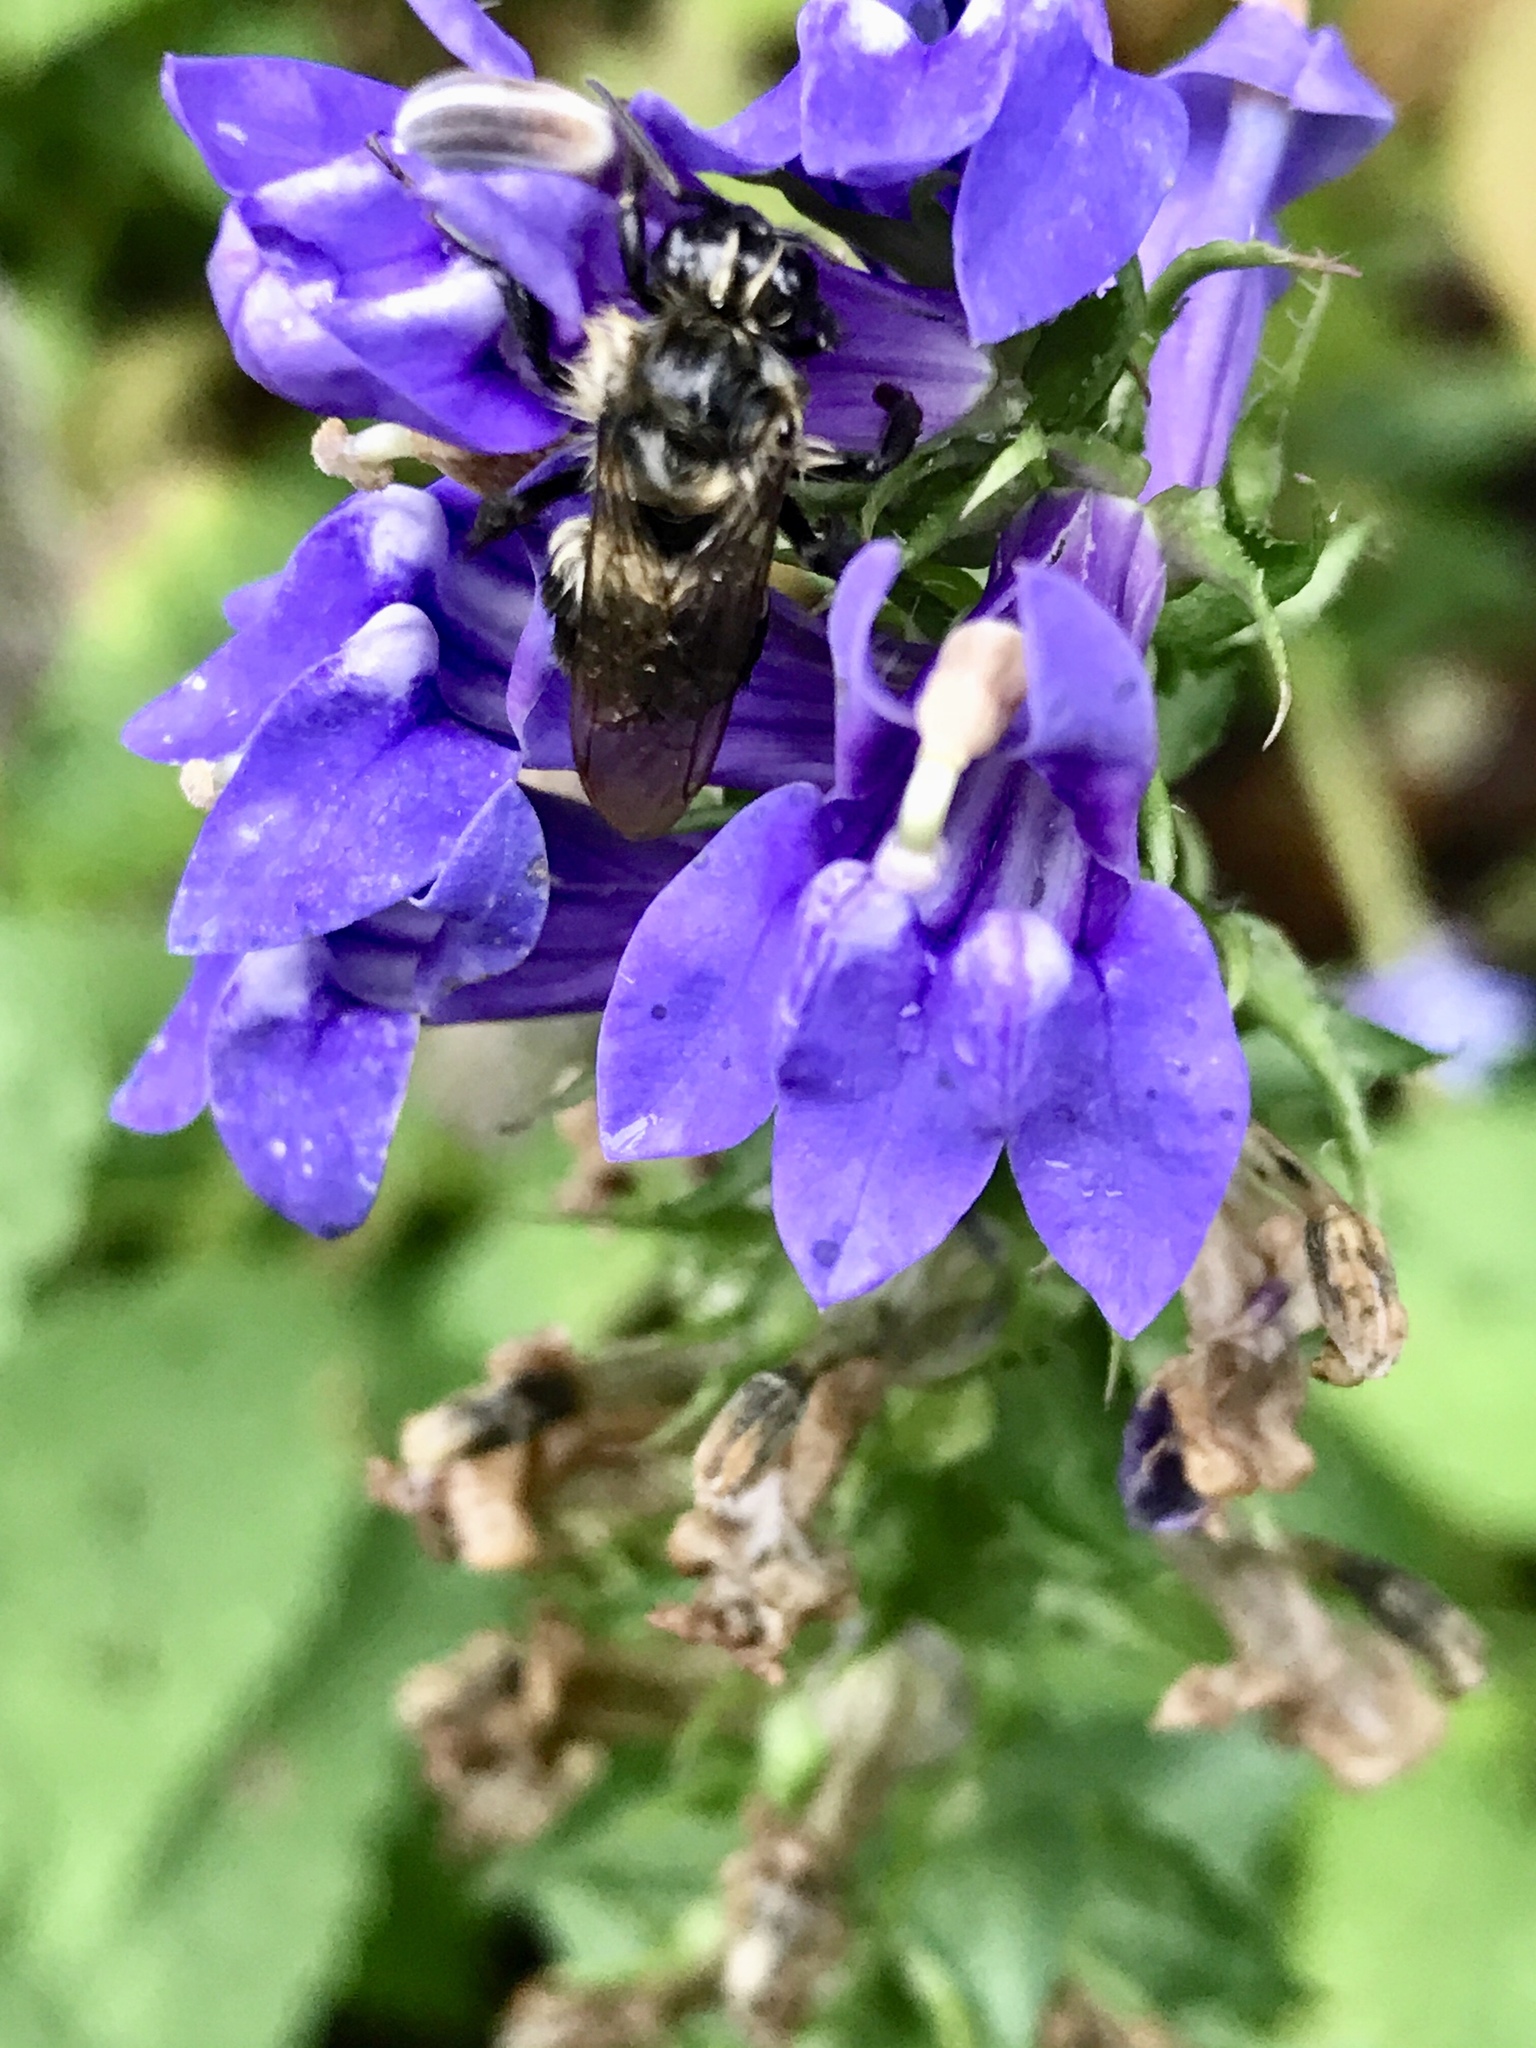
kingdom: Animalia
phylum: Arthropoda
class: Insecta
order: Hymenoptera
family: Apidae
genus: Bombus
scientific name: Bombus impatiens
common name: Common eastern bumble bee
